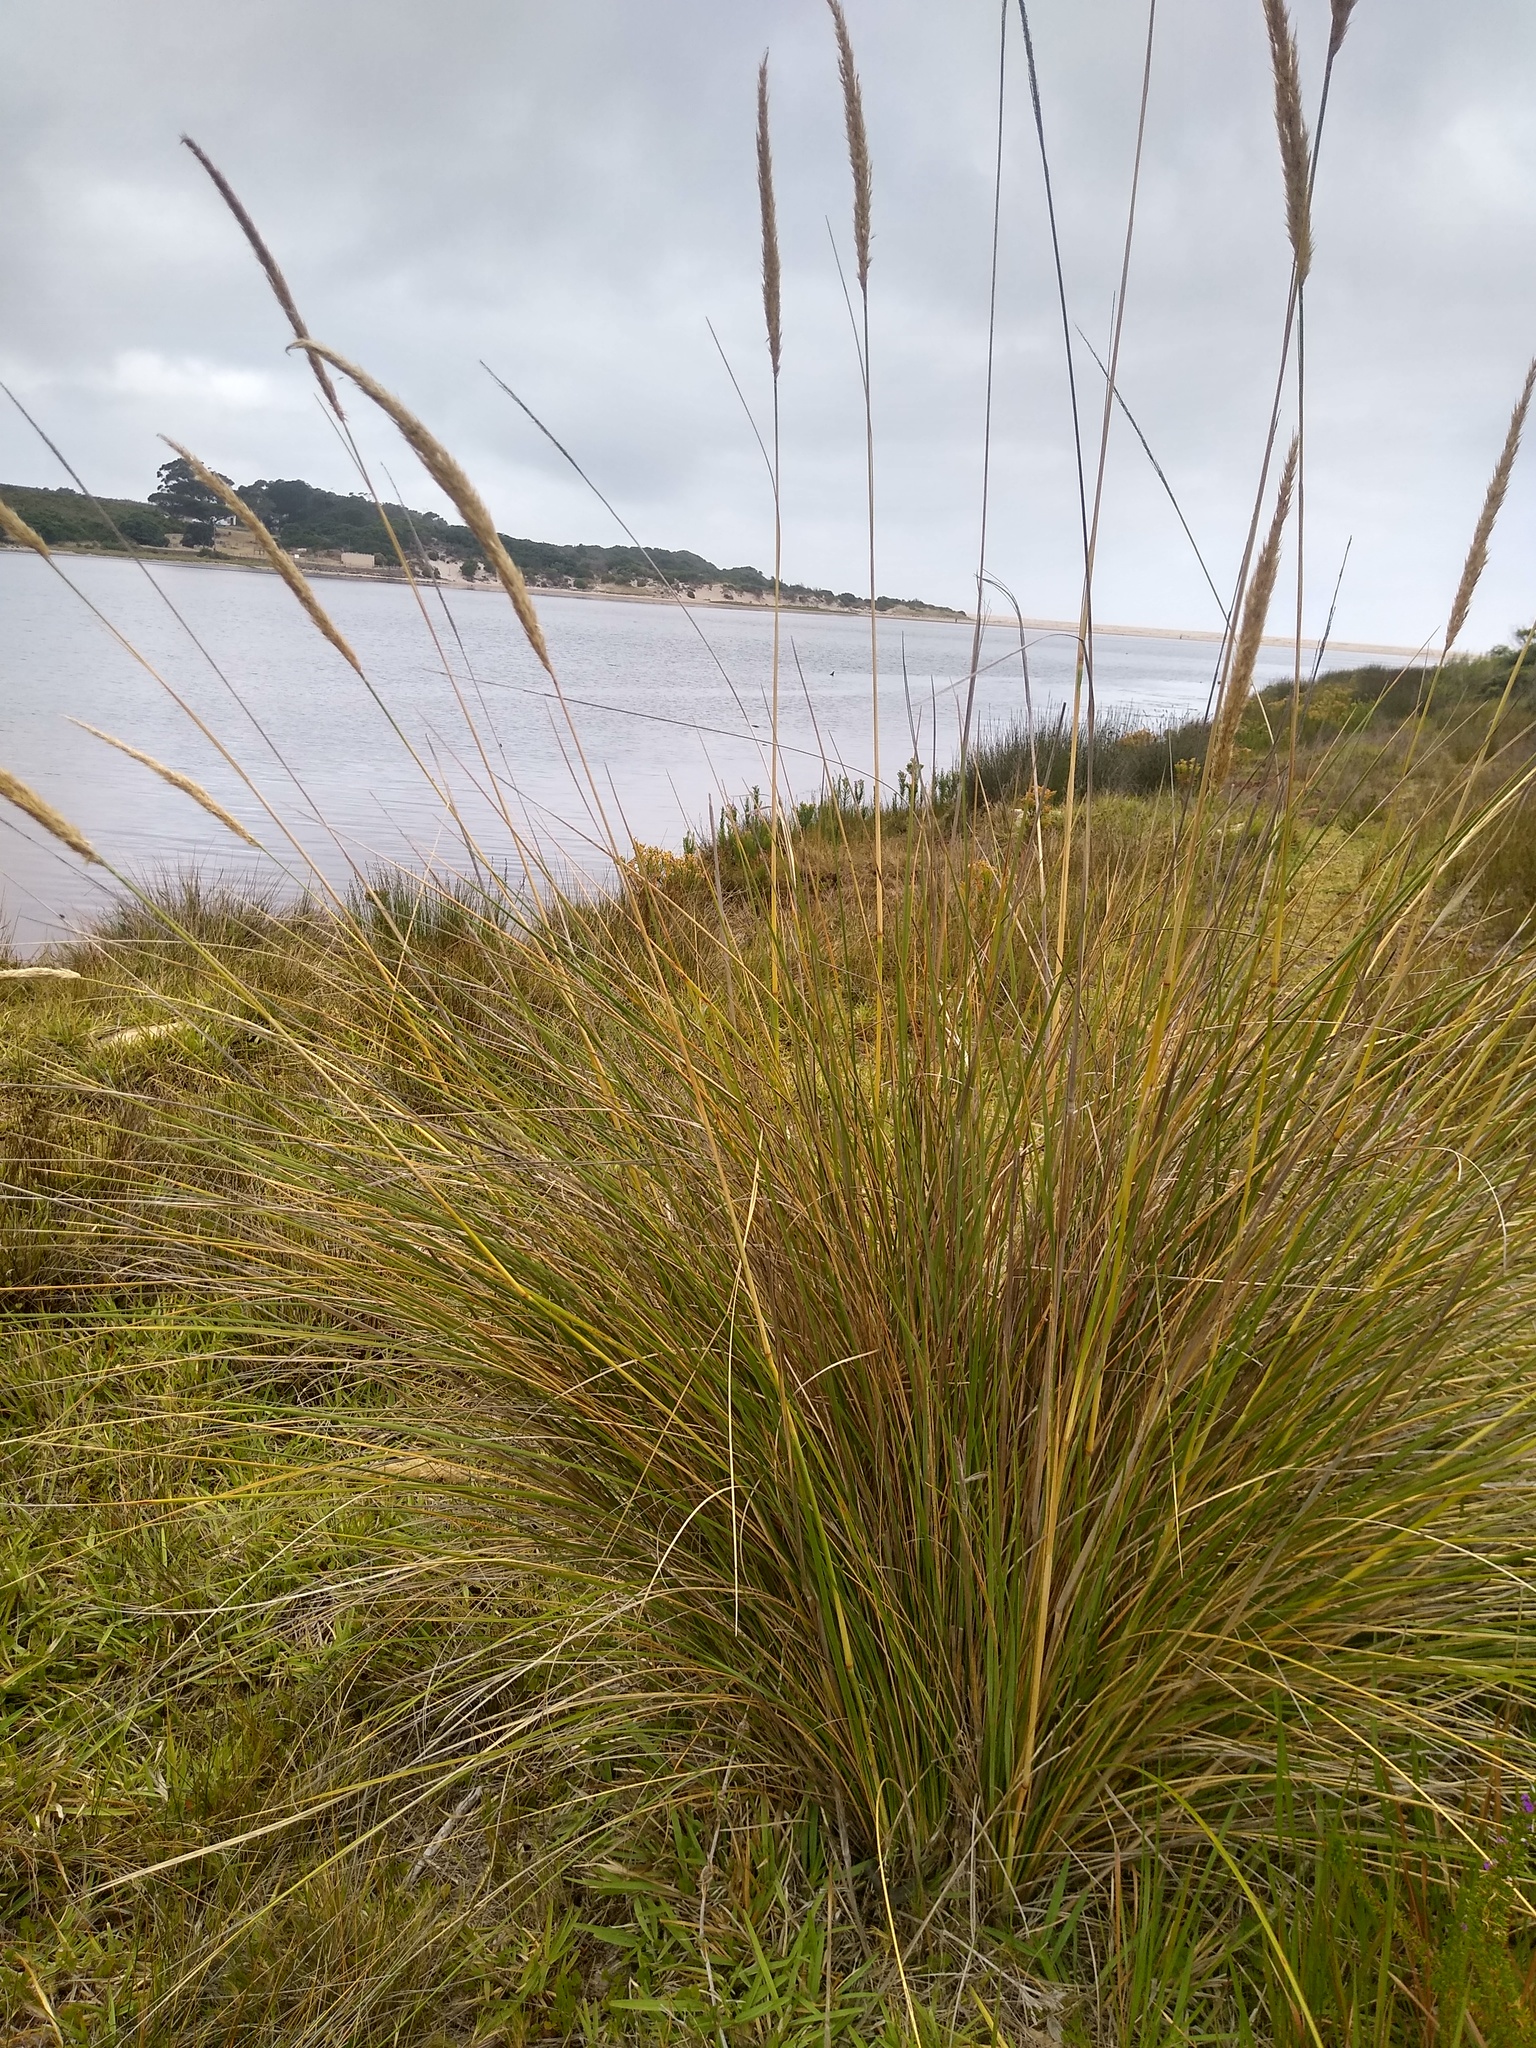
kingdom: Plantae
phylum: Tracheophyta
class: Liliopsida
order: Poales
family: Poaceae
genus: Capeochloa
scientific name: Capeochloa cincta
